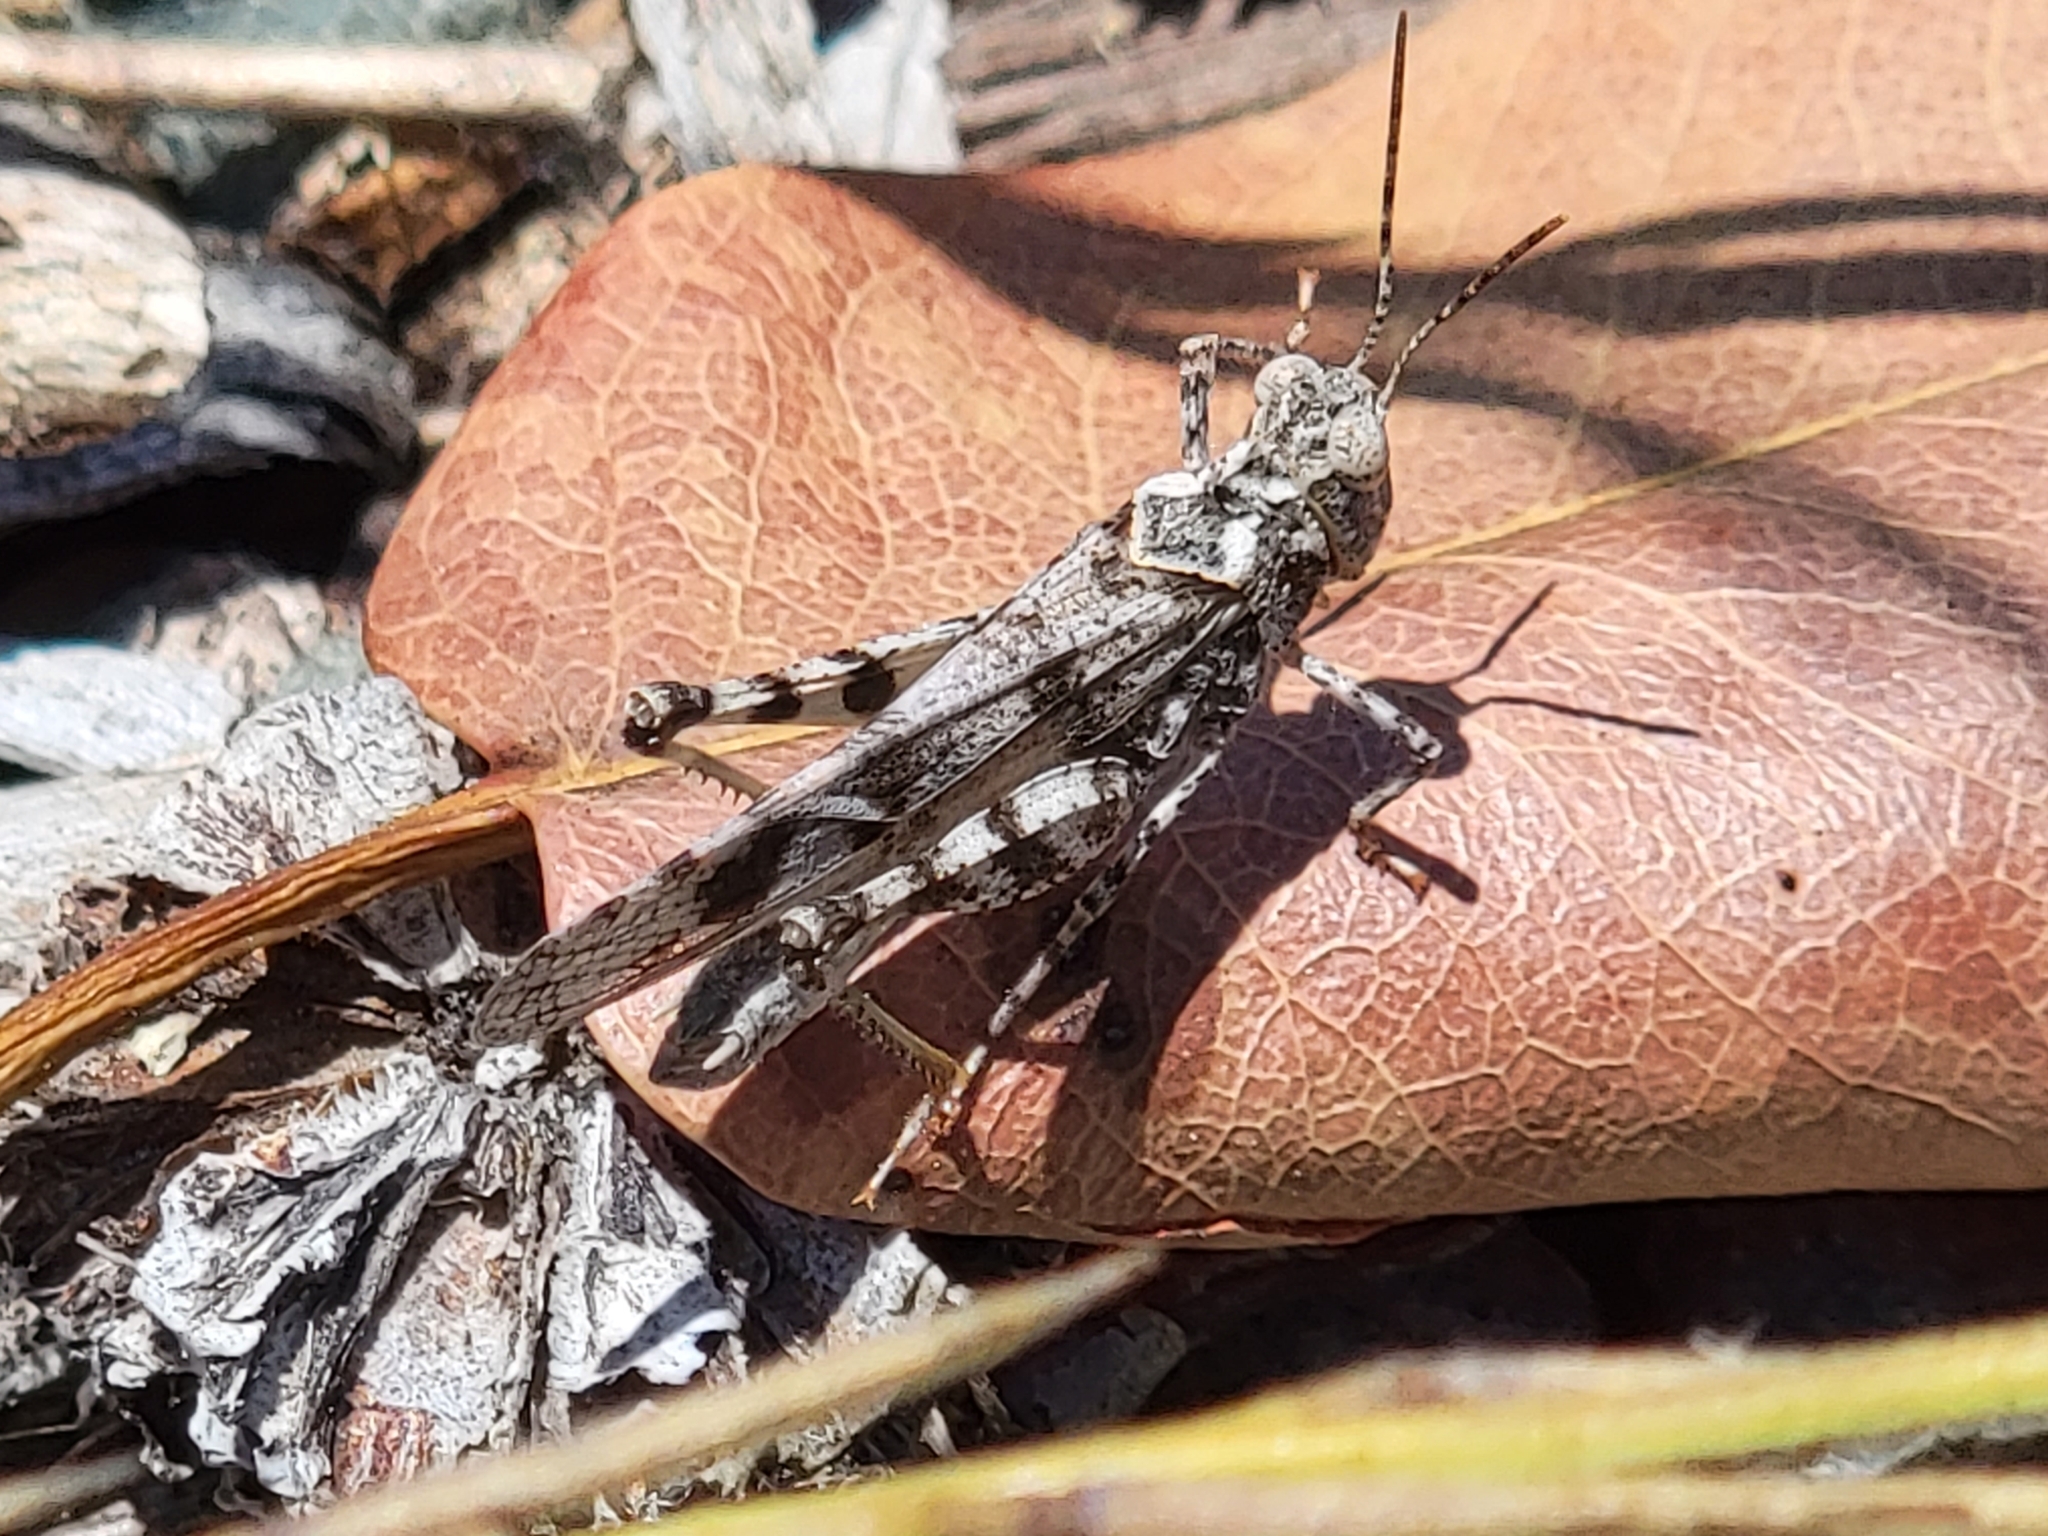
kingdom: Animalia
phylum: Arthropoda
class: Insecta
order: Orthoptera
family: Acrididae
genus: Dissosteira
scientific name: Dissosteira pictipennis
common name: California rose-winged grasshopper
